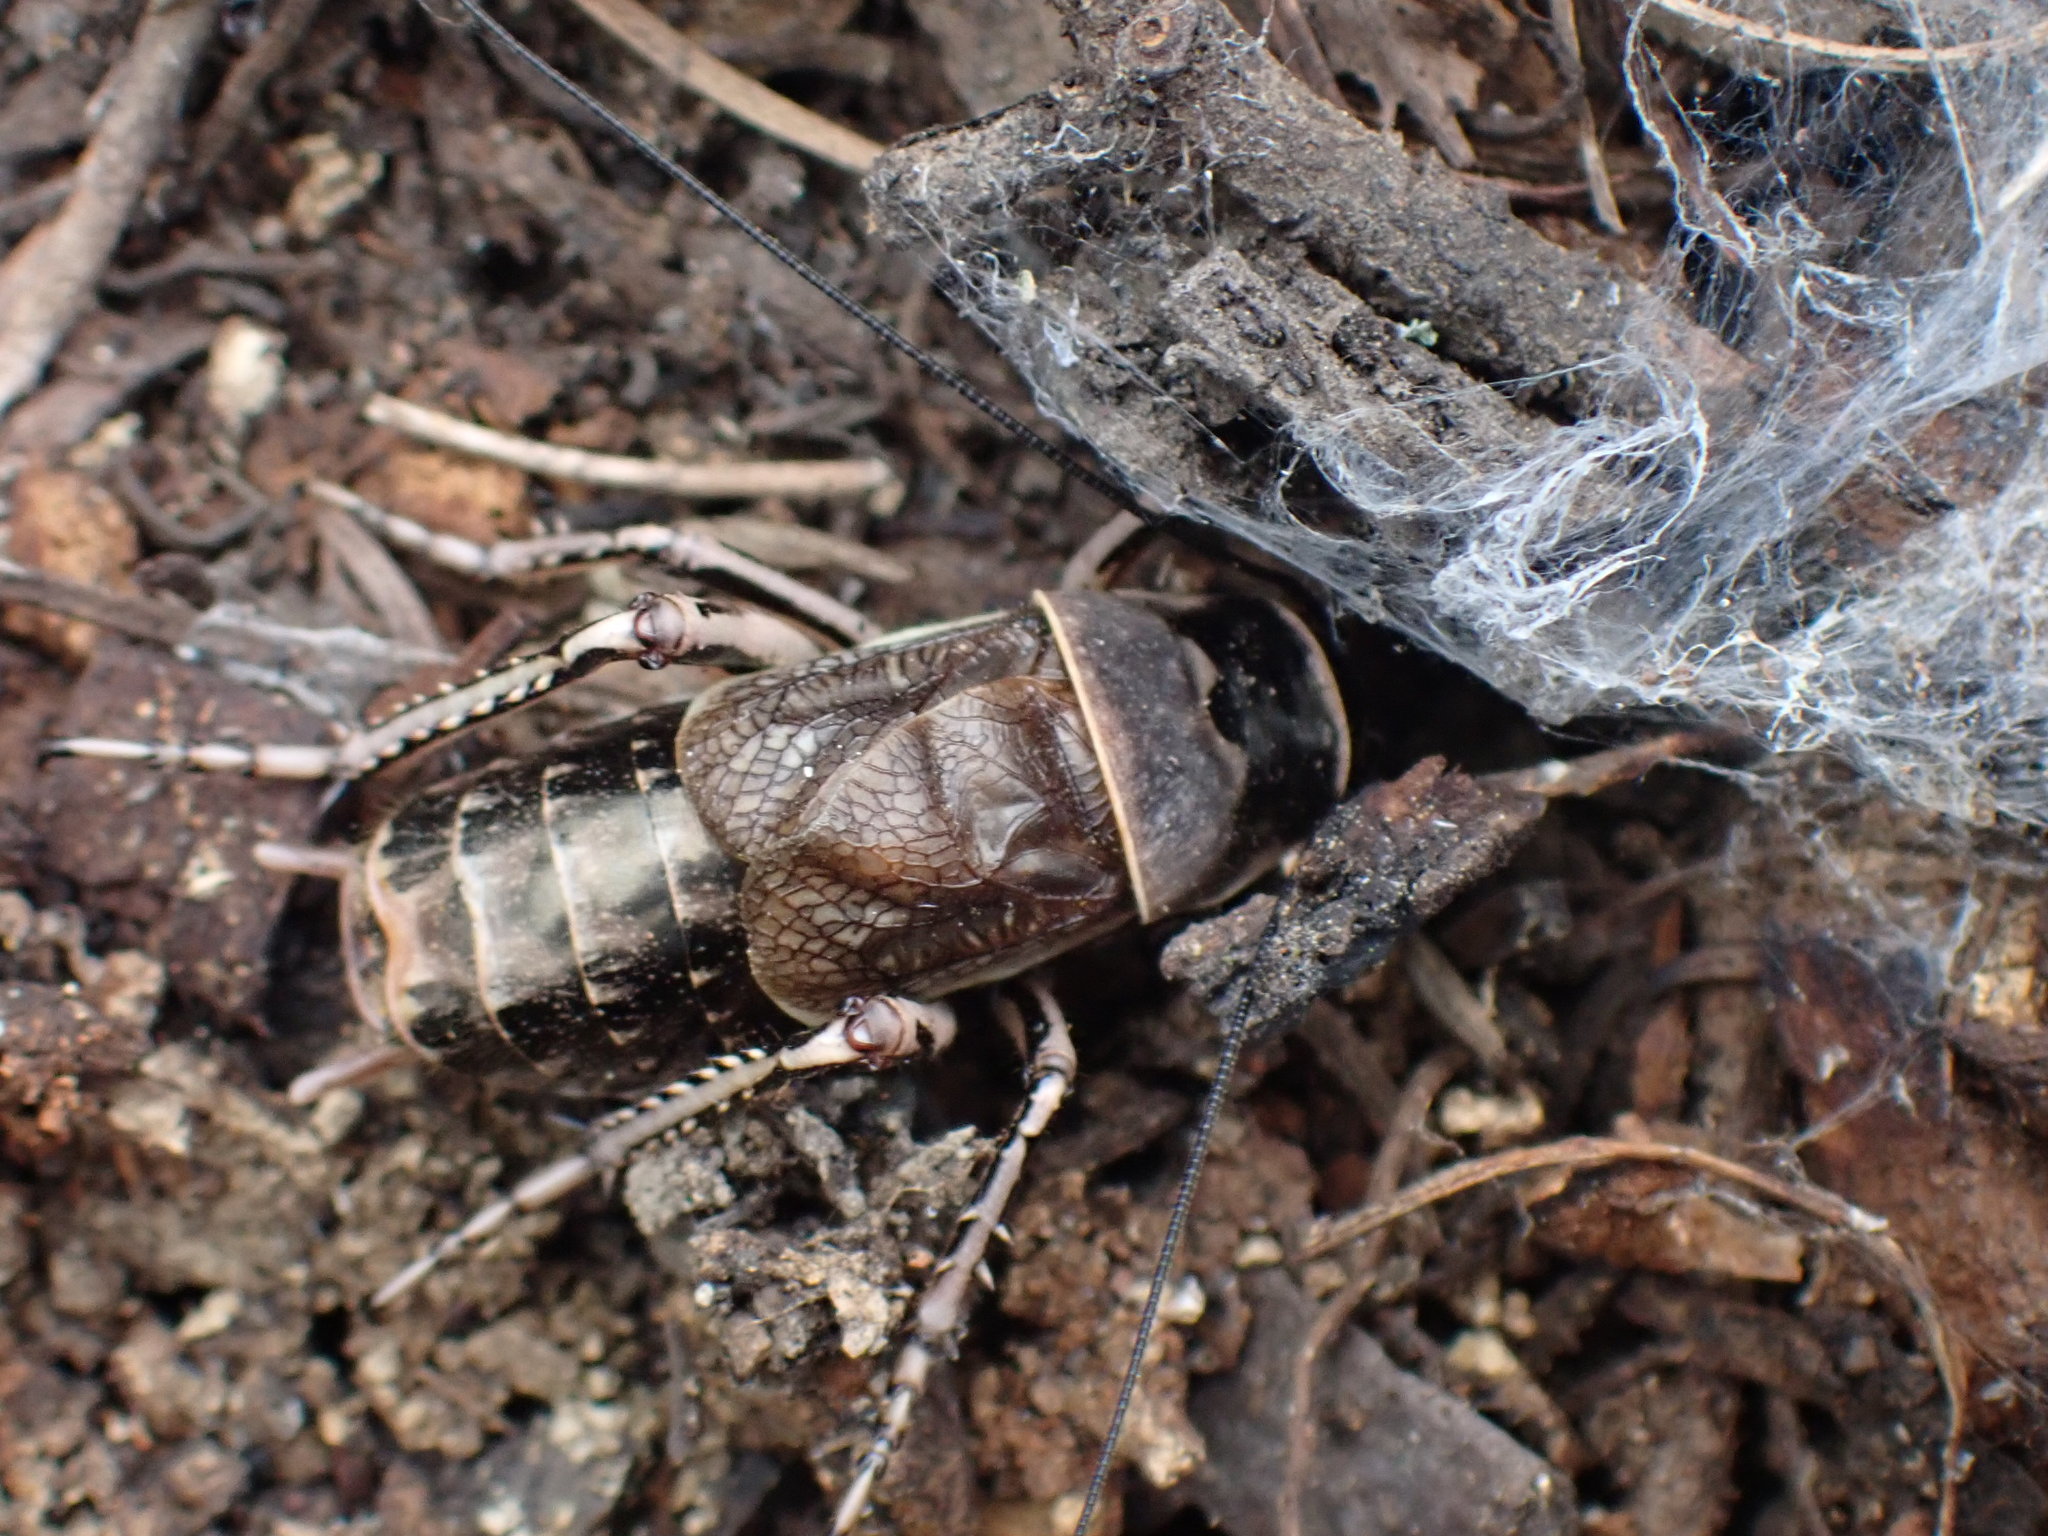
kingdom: Animalia
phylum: Arthropoda
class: Insecta
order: Orthoptera
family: Prophalangopsidae
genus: Cyphoderris
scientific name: Cyphoderris monstrosa
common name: Great grig
